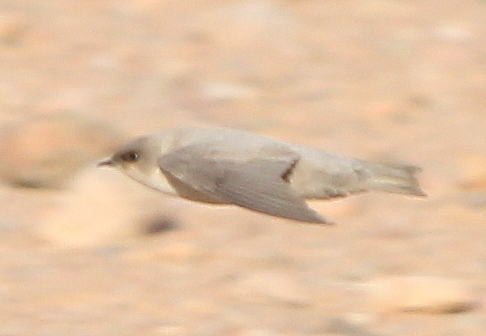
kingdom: Animalia
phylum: Chordata
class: Aves
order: Passeriformes
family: Hirundinidae
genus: Ptyonoprogne
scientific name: Ptyonoprogne fuligula
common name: Rock martin
